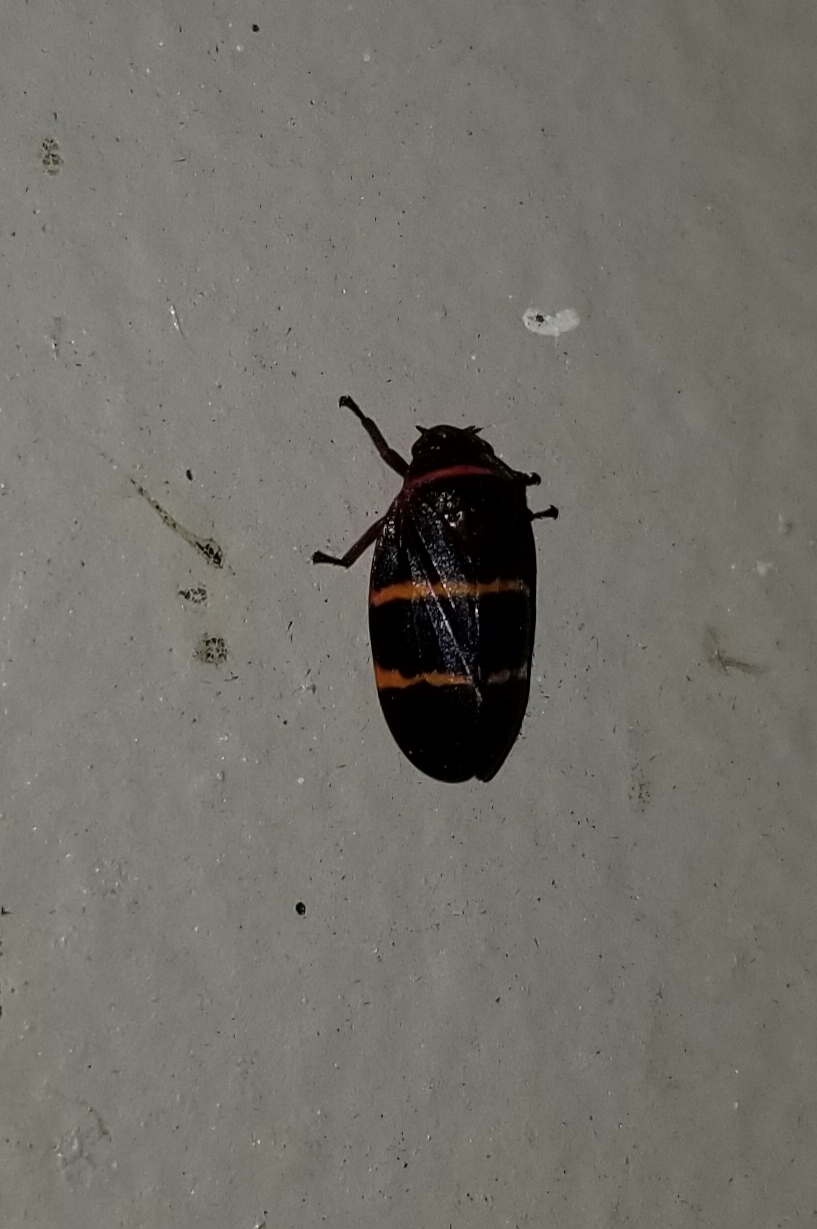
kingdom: Animalia
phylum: Arthropoda
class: Insecta
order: Hemiptera
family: Cercopidae
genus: Prosapia
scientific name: Prosapia bicincta
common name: Twolined spittlebug
